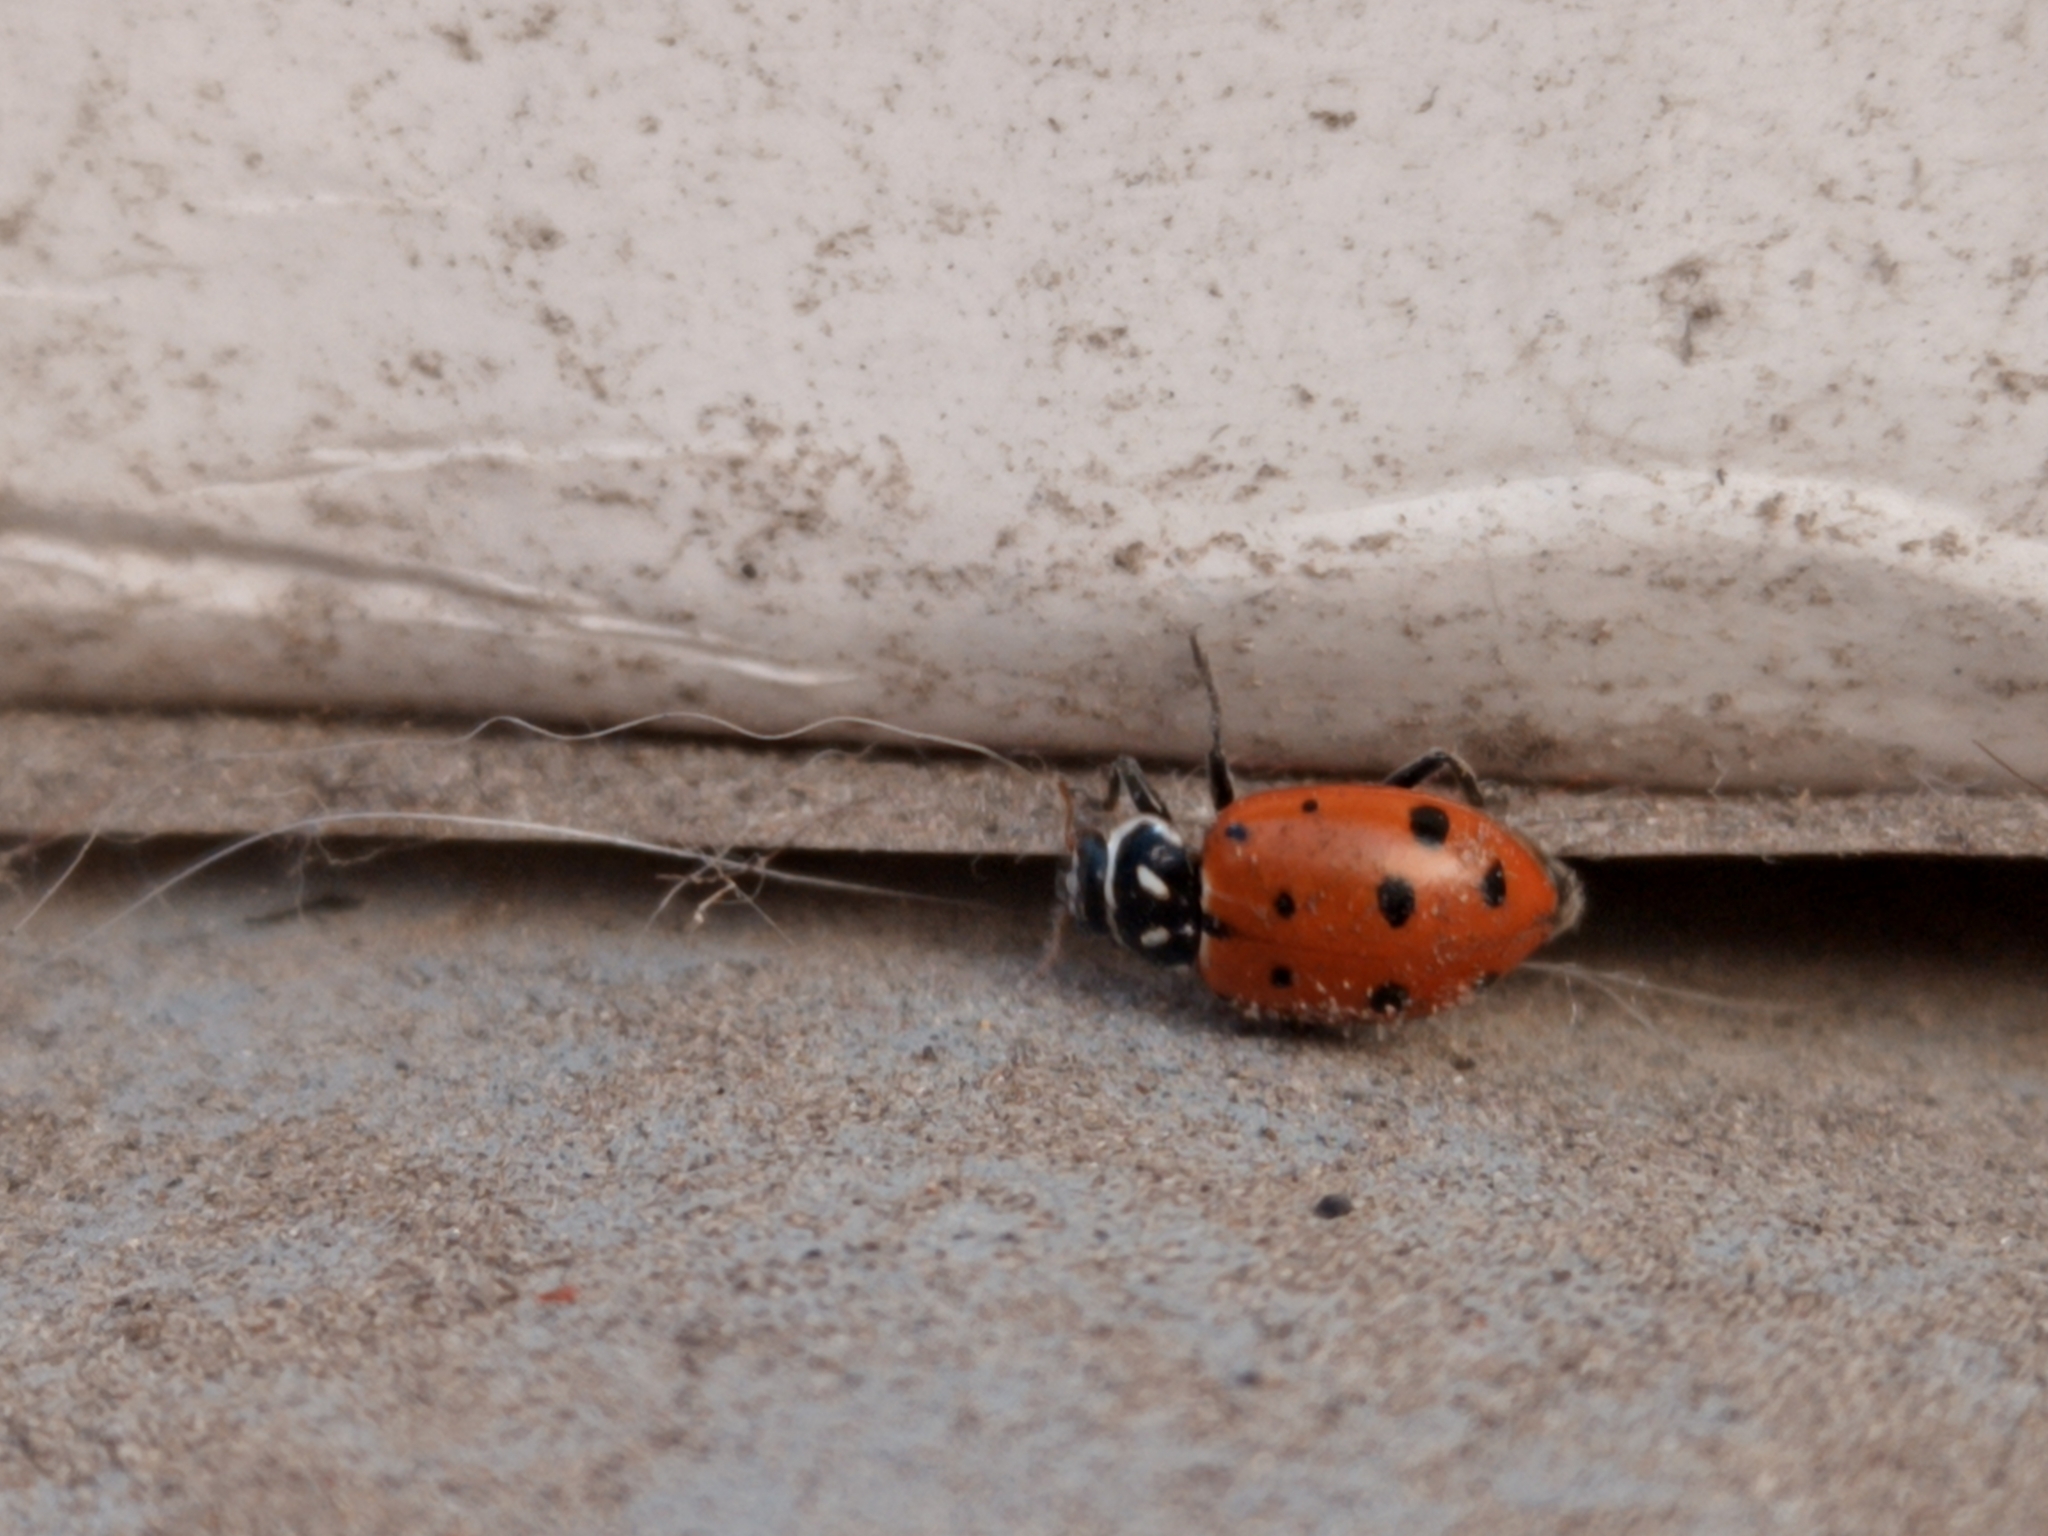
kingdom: Animalia
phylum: Arthropoda
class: Insecta
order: Coleoptera
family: Coccinellidae
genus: Hippodamia
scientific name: Hippodamia convergens
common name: Convergent lady beetle
